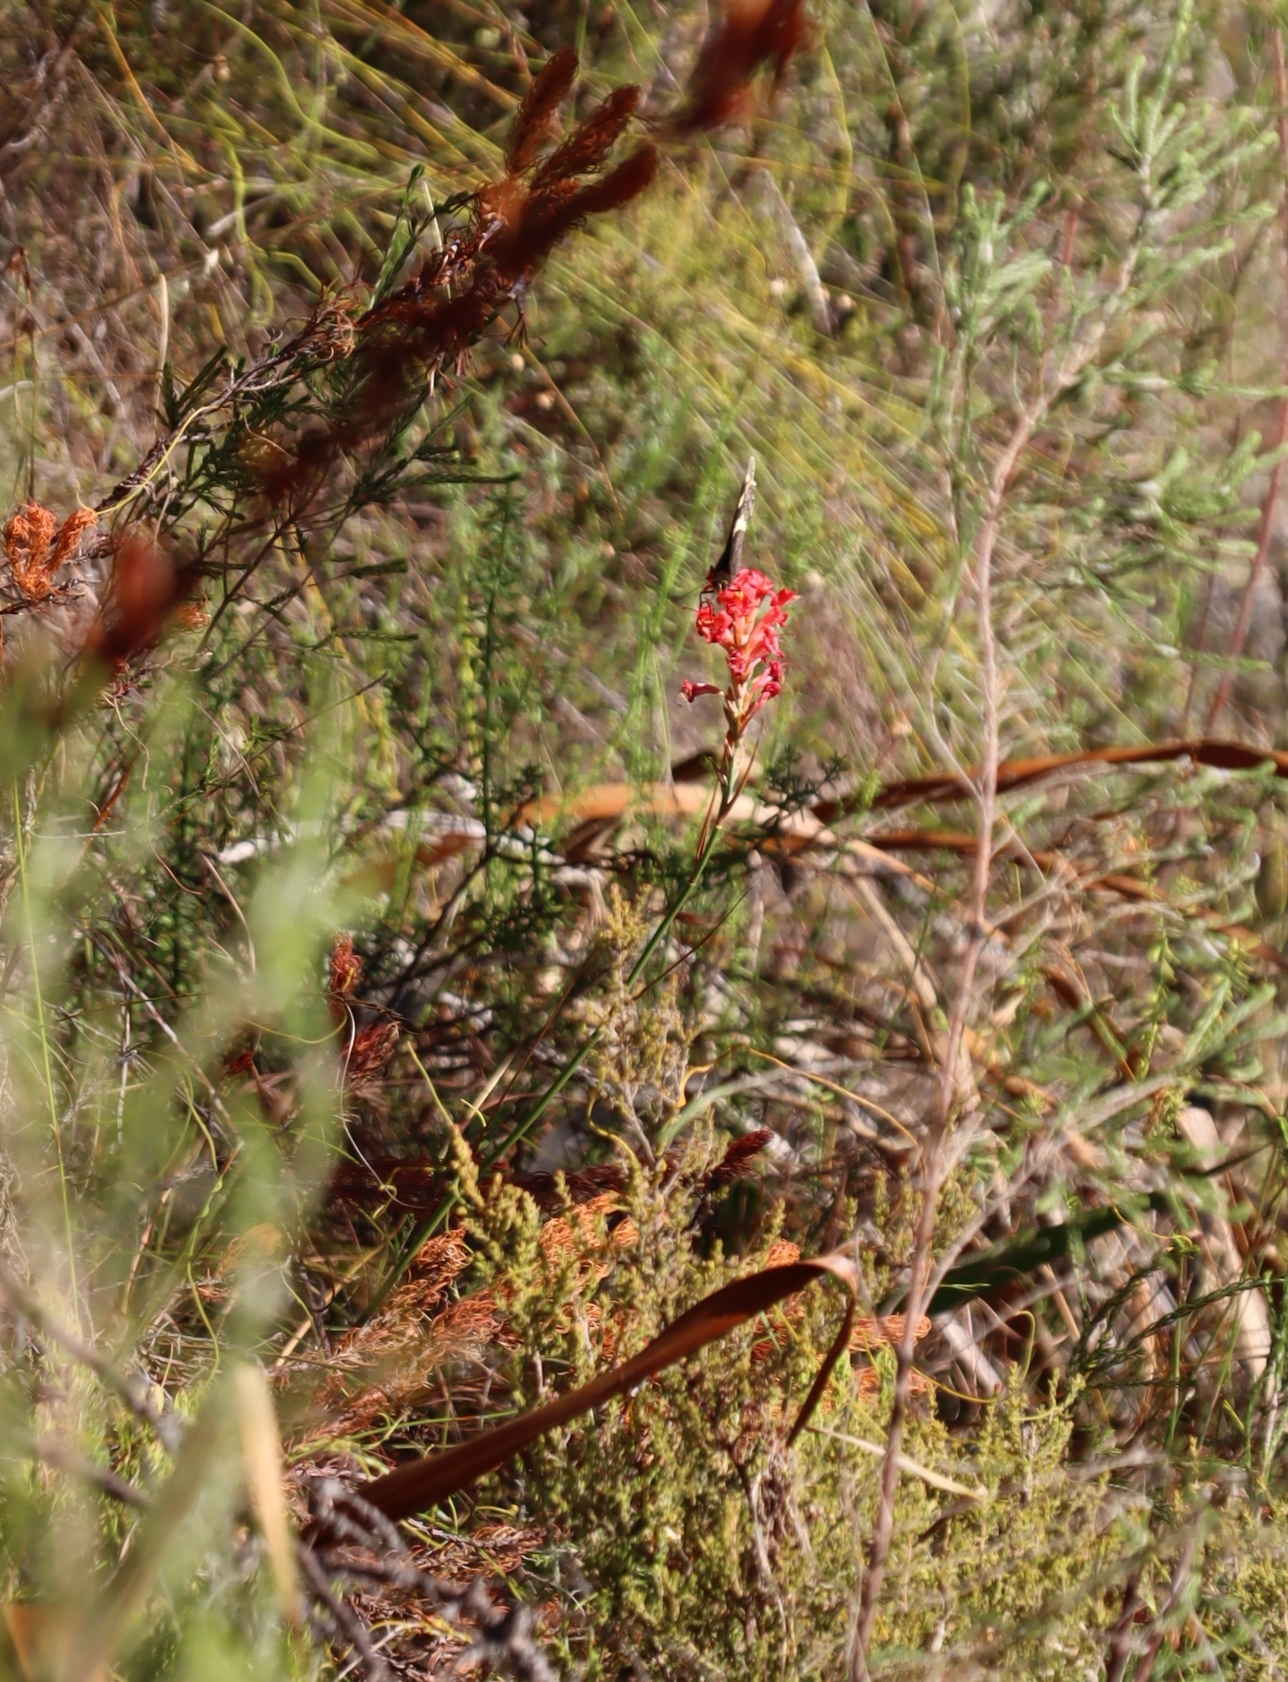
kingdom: Plantae
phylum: Tracheophyta
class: Liliopsida
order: Asparagales
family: Iridaceae
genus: Tritoniopsis
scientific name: Tritoniopsis triticea
